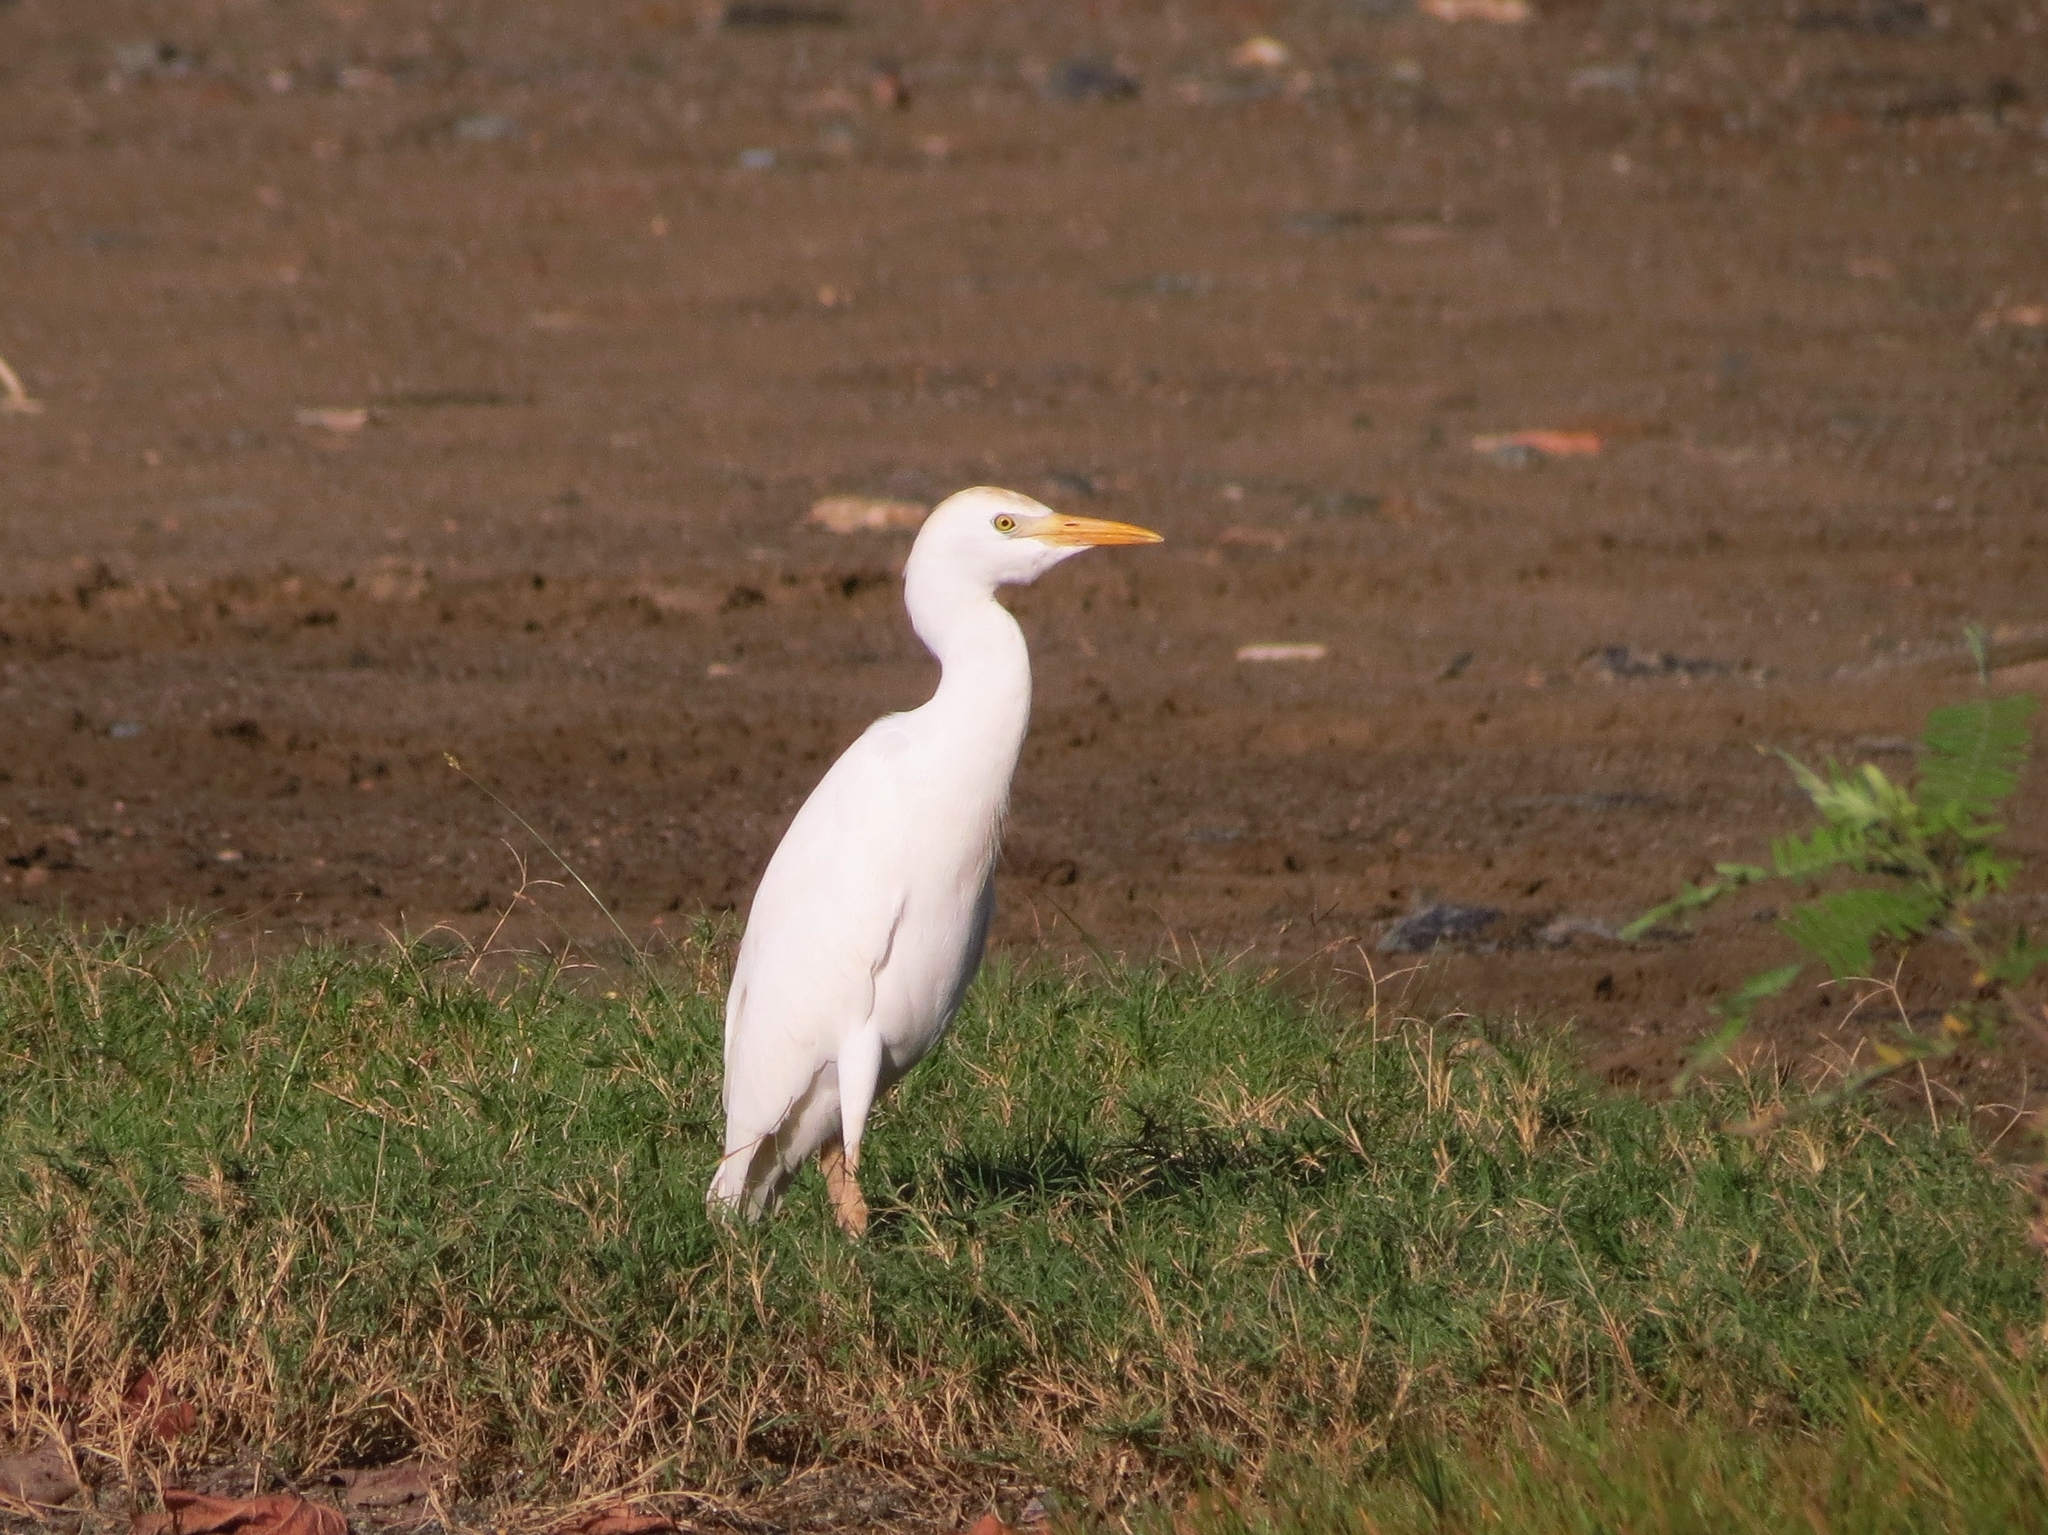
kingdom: Animalia
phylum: Chordata
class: Aves
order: Pelecaniformes
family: Ardeidae
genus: Bubulcus
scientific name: Bubulcus ibis
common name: Cattle egret
